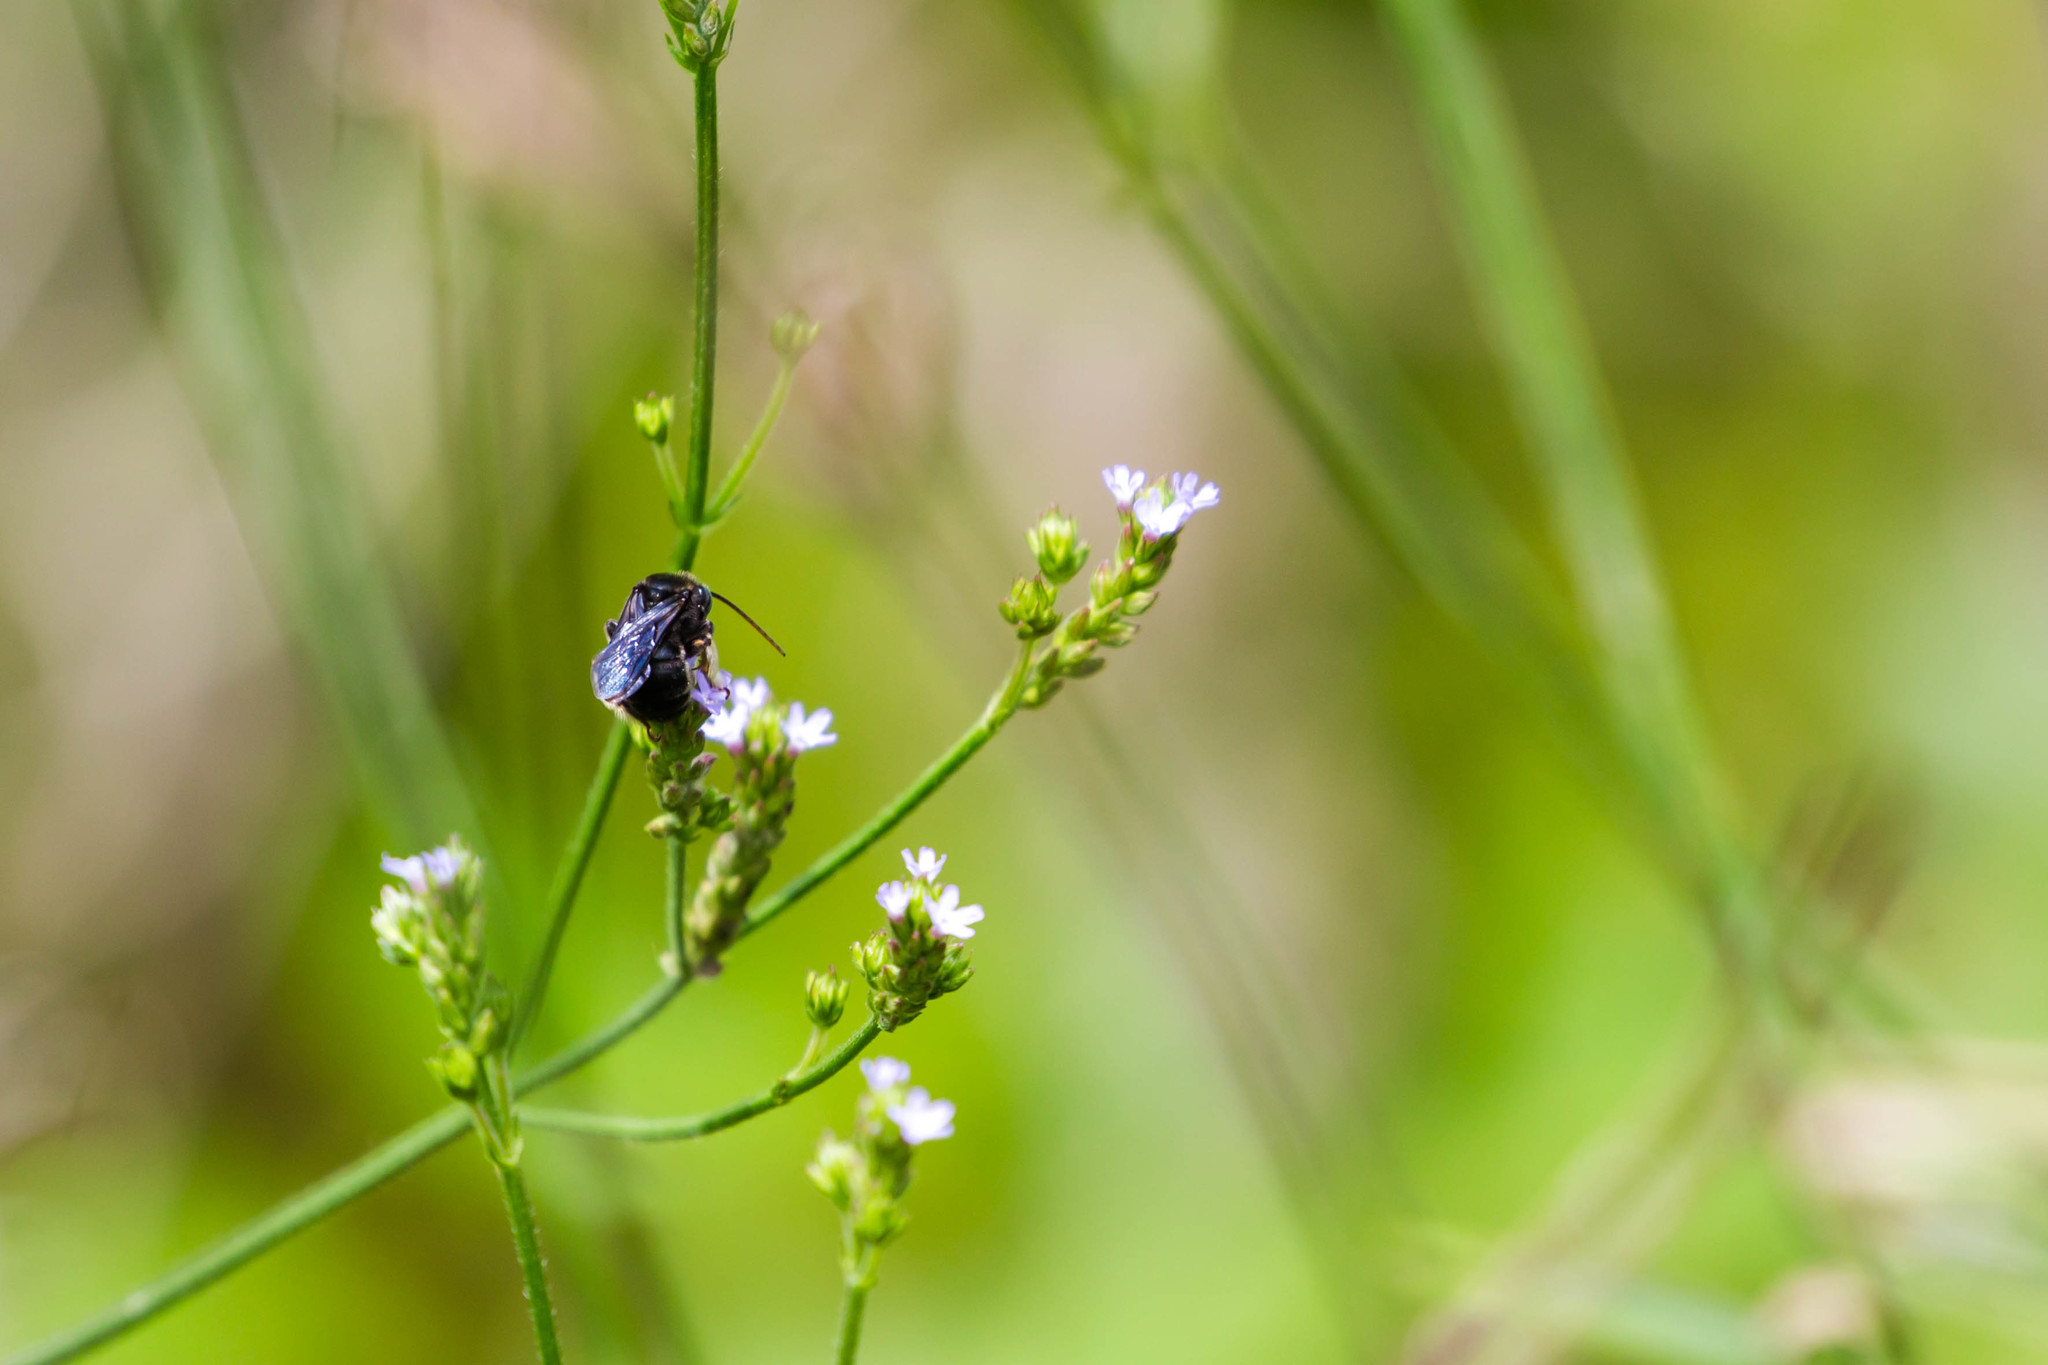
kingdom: Animalia
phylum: Arthropoda
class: Insecta
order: Hymenoptera
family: Apidae
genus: Melissodes
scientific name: Melissodes bimaculatus
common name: Two-spotted long-horned bee
